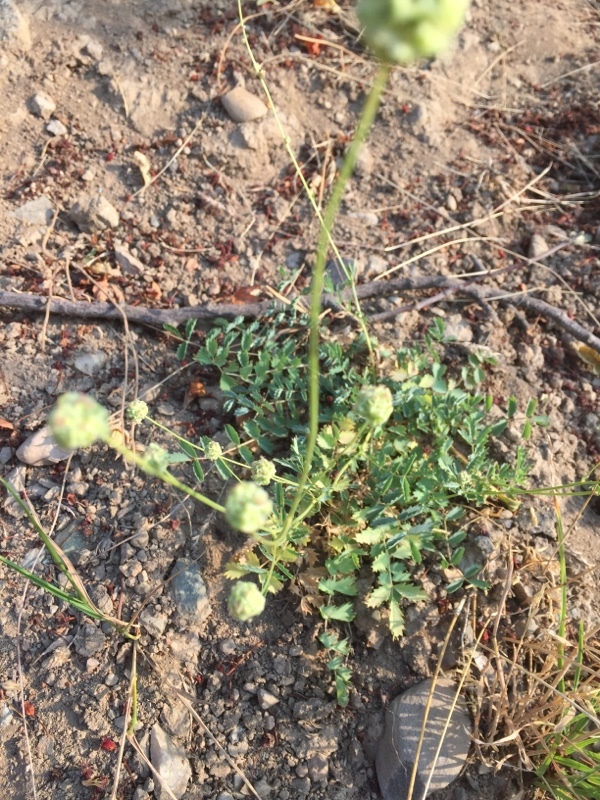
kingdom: Plantae
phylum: Tracheophyta
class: Magnoliopsida
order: Rosales
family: Rosaceae
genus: Poterium
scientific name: Poterium sanguisorba
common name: Salad burnet
